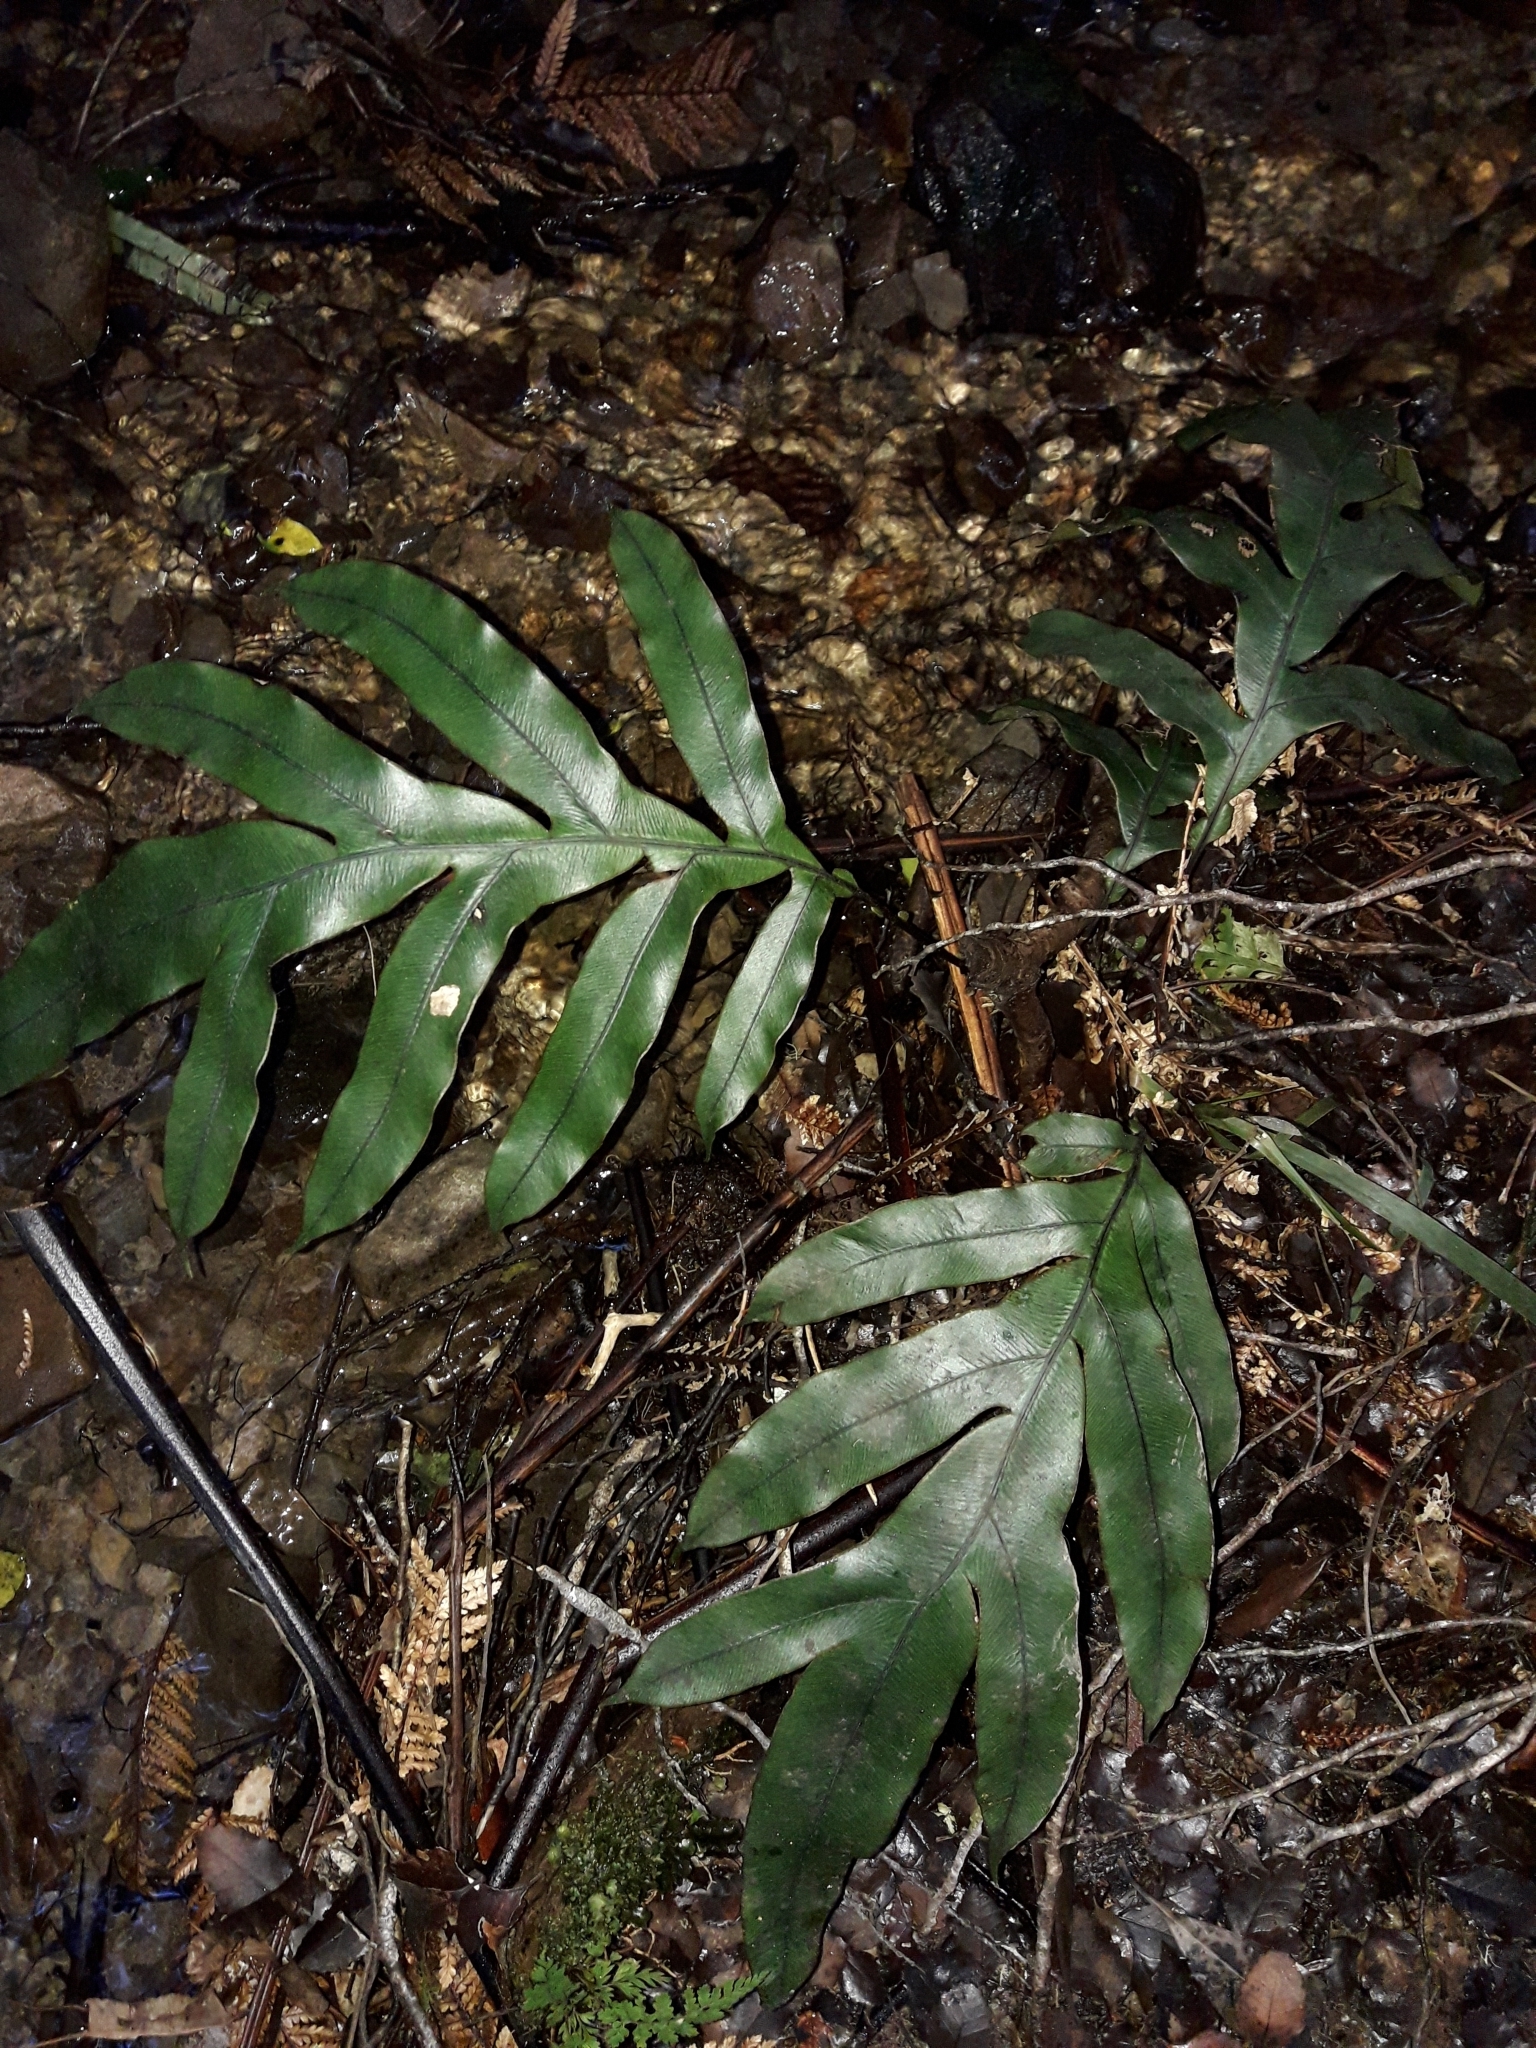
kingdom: Plantae
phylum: Tracheophyta
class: Polypodiopsida
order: Polypodiales
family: Blechnaceae
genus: Austroblechnum
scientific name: Austroblechnum colensoi
